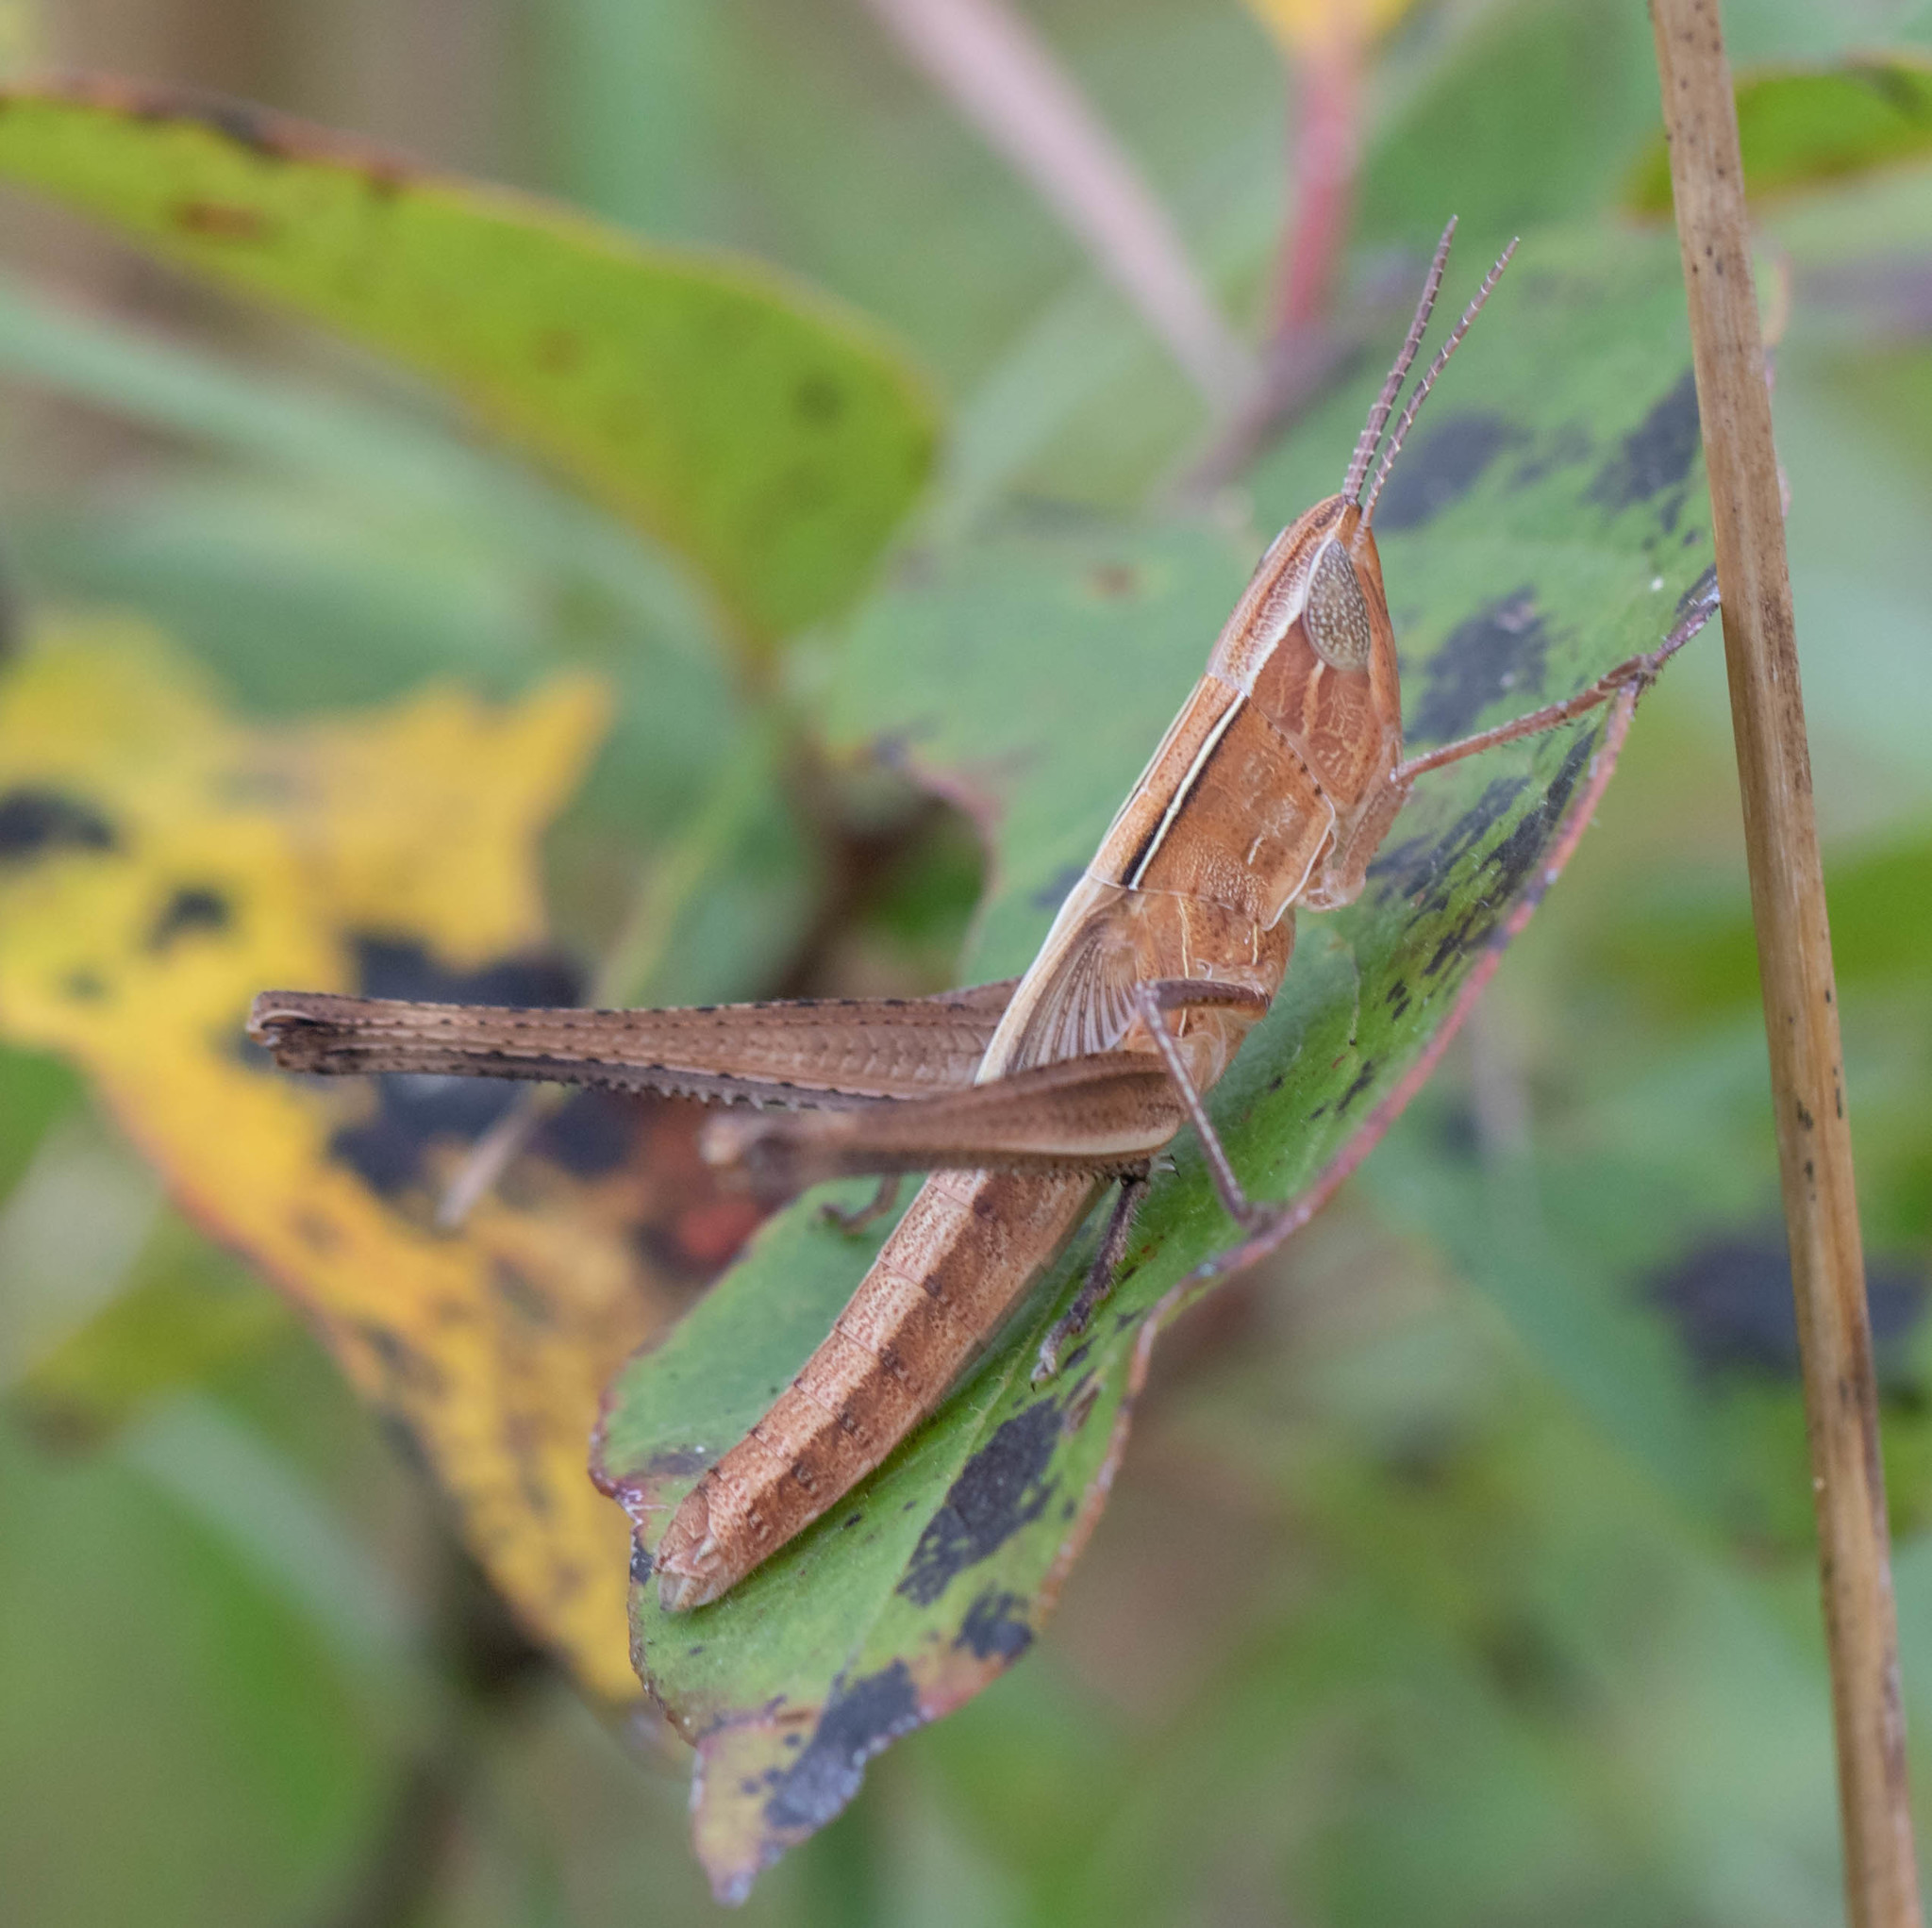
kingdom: Animalia
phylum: Arthropoda
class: Insecta
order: Orthoptera
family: Acrididae
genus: Syrbula
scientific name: Syrbula admirabilis
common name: Handsome grasshopper
